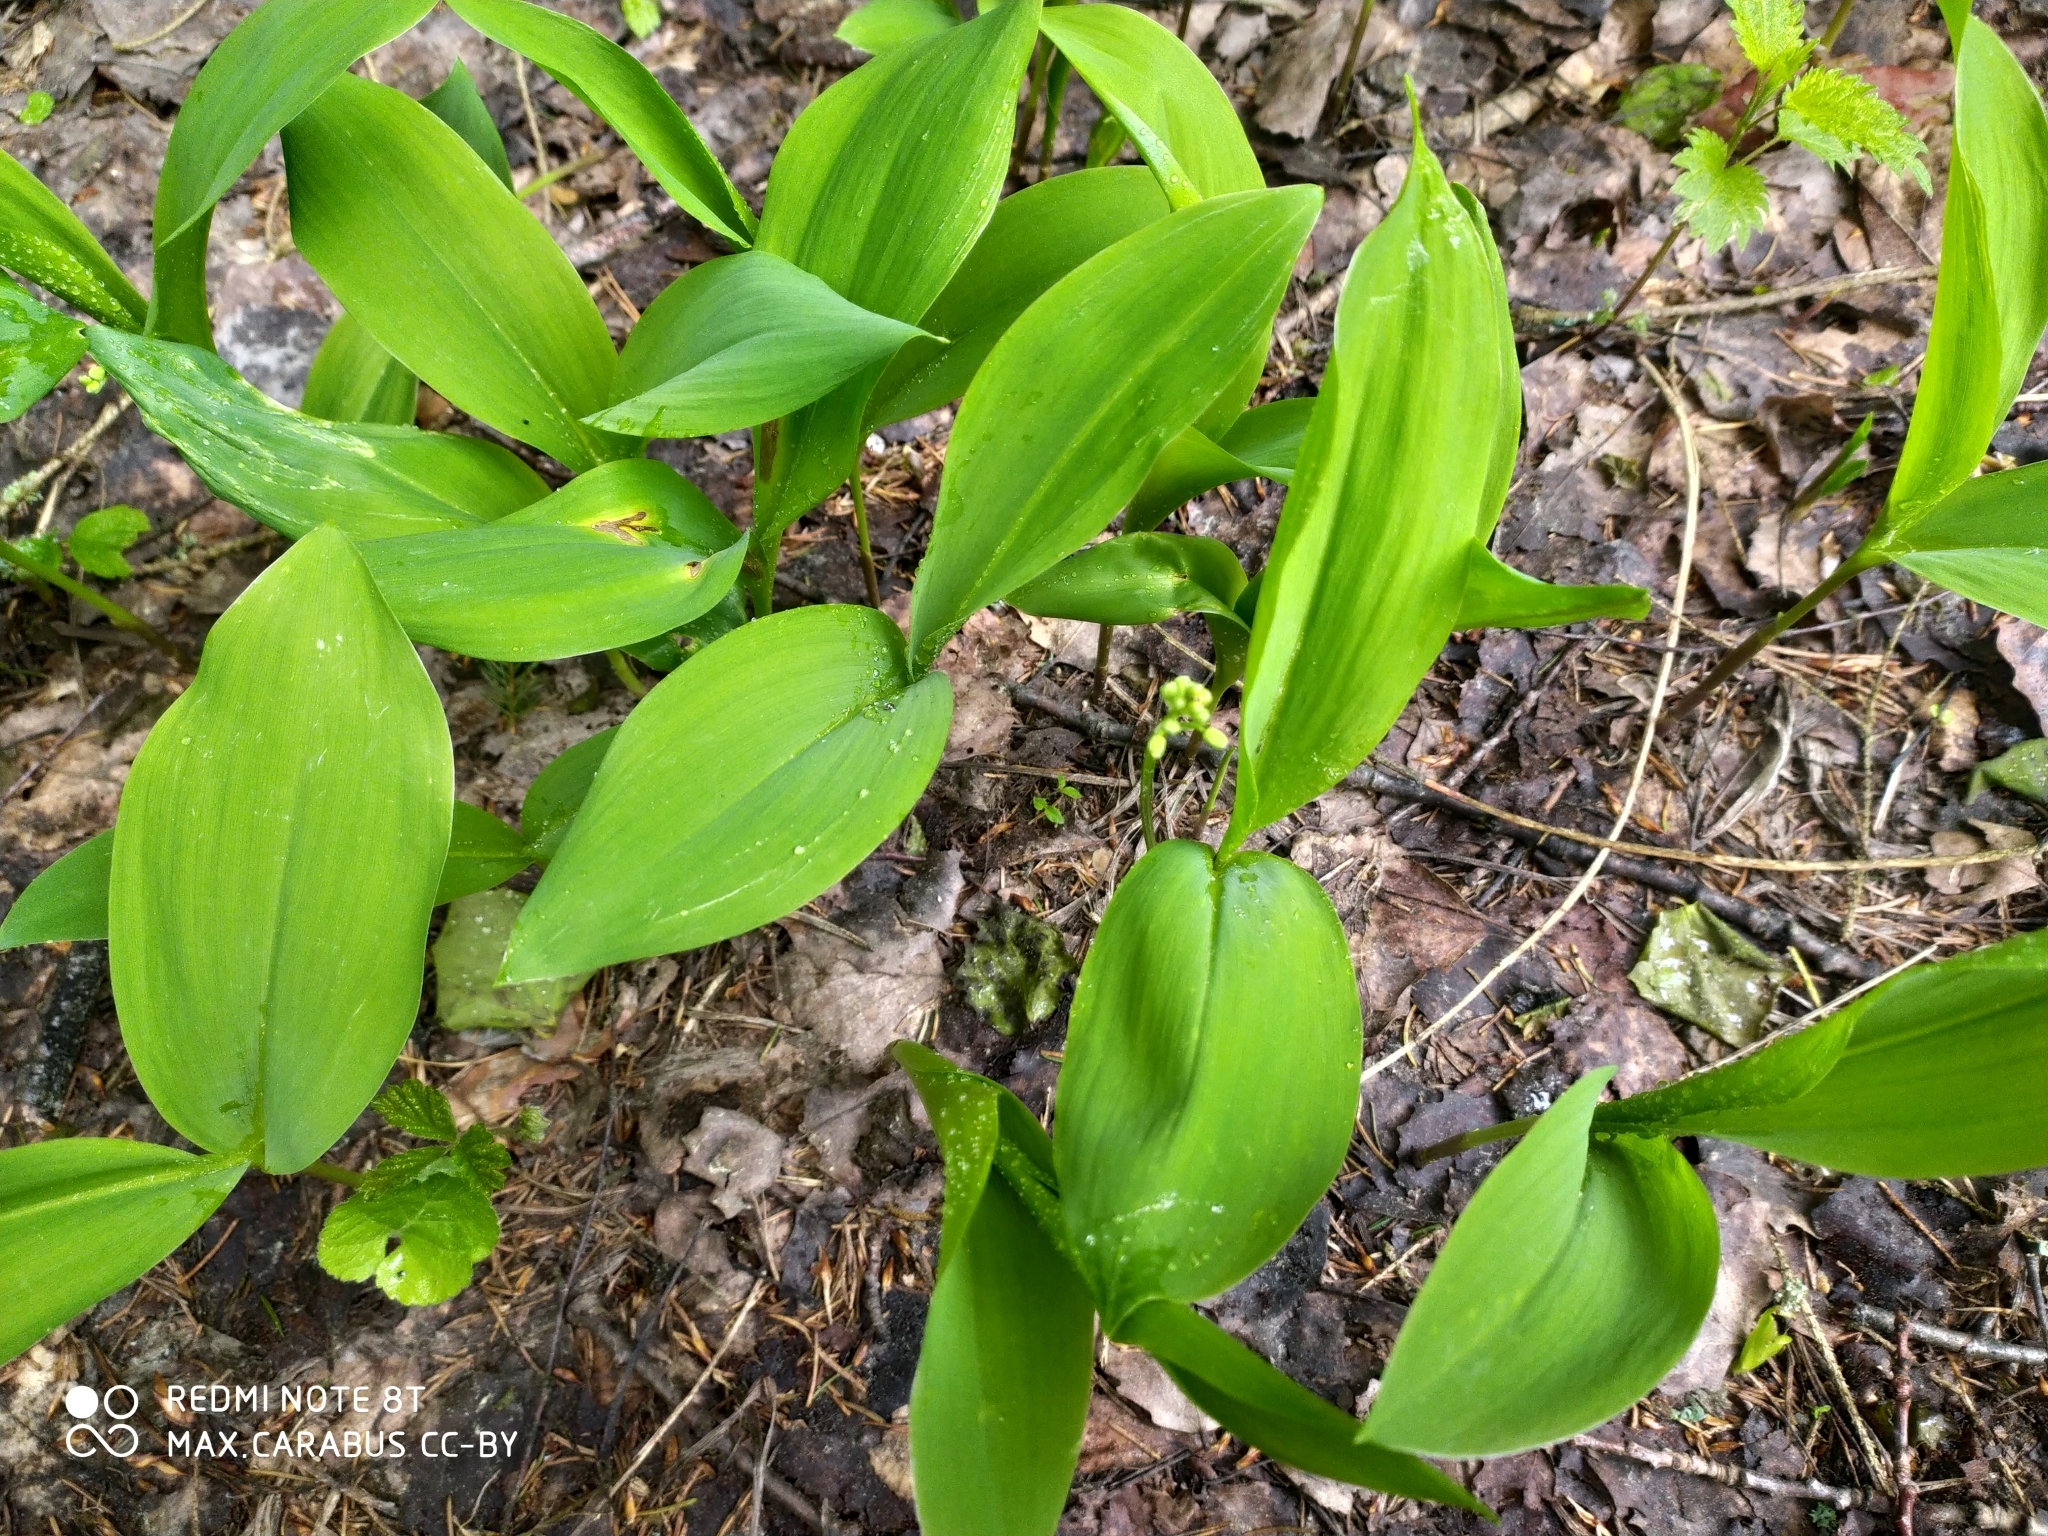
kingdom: Plantae
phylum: Tracheophyta
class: Liliopsida
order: Asparagales
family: Asparagaceae
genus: Convallaria
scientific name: Convallaria majalis
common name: Lily-of-the-valley
